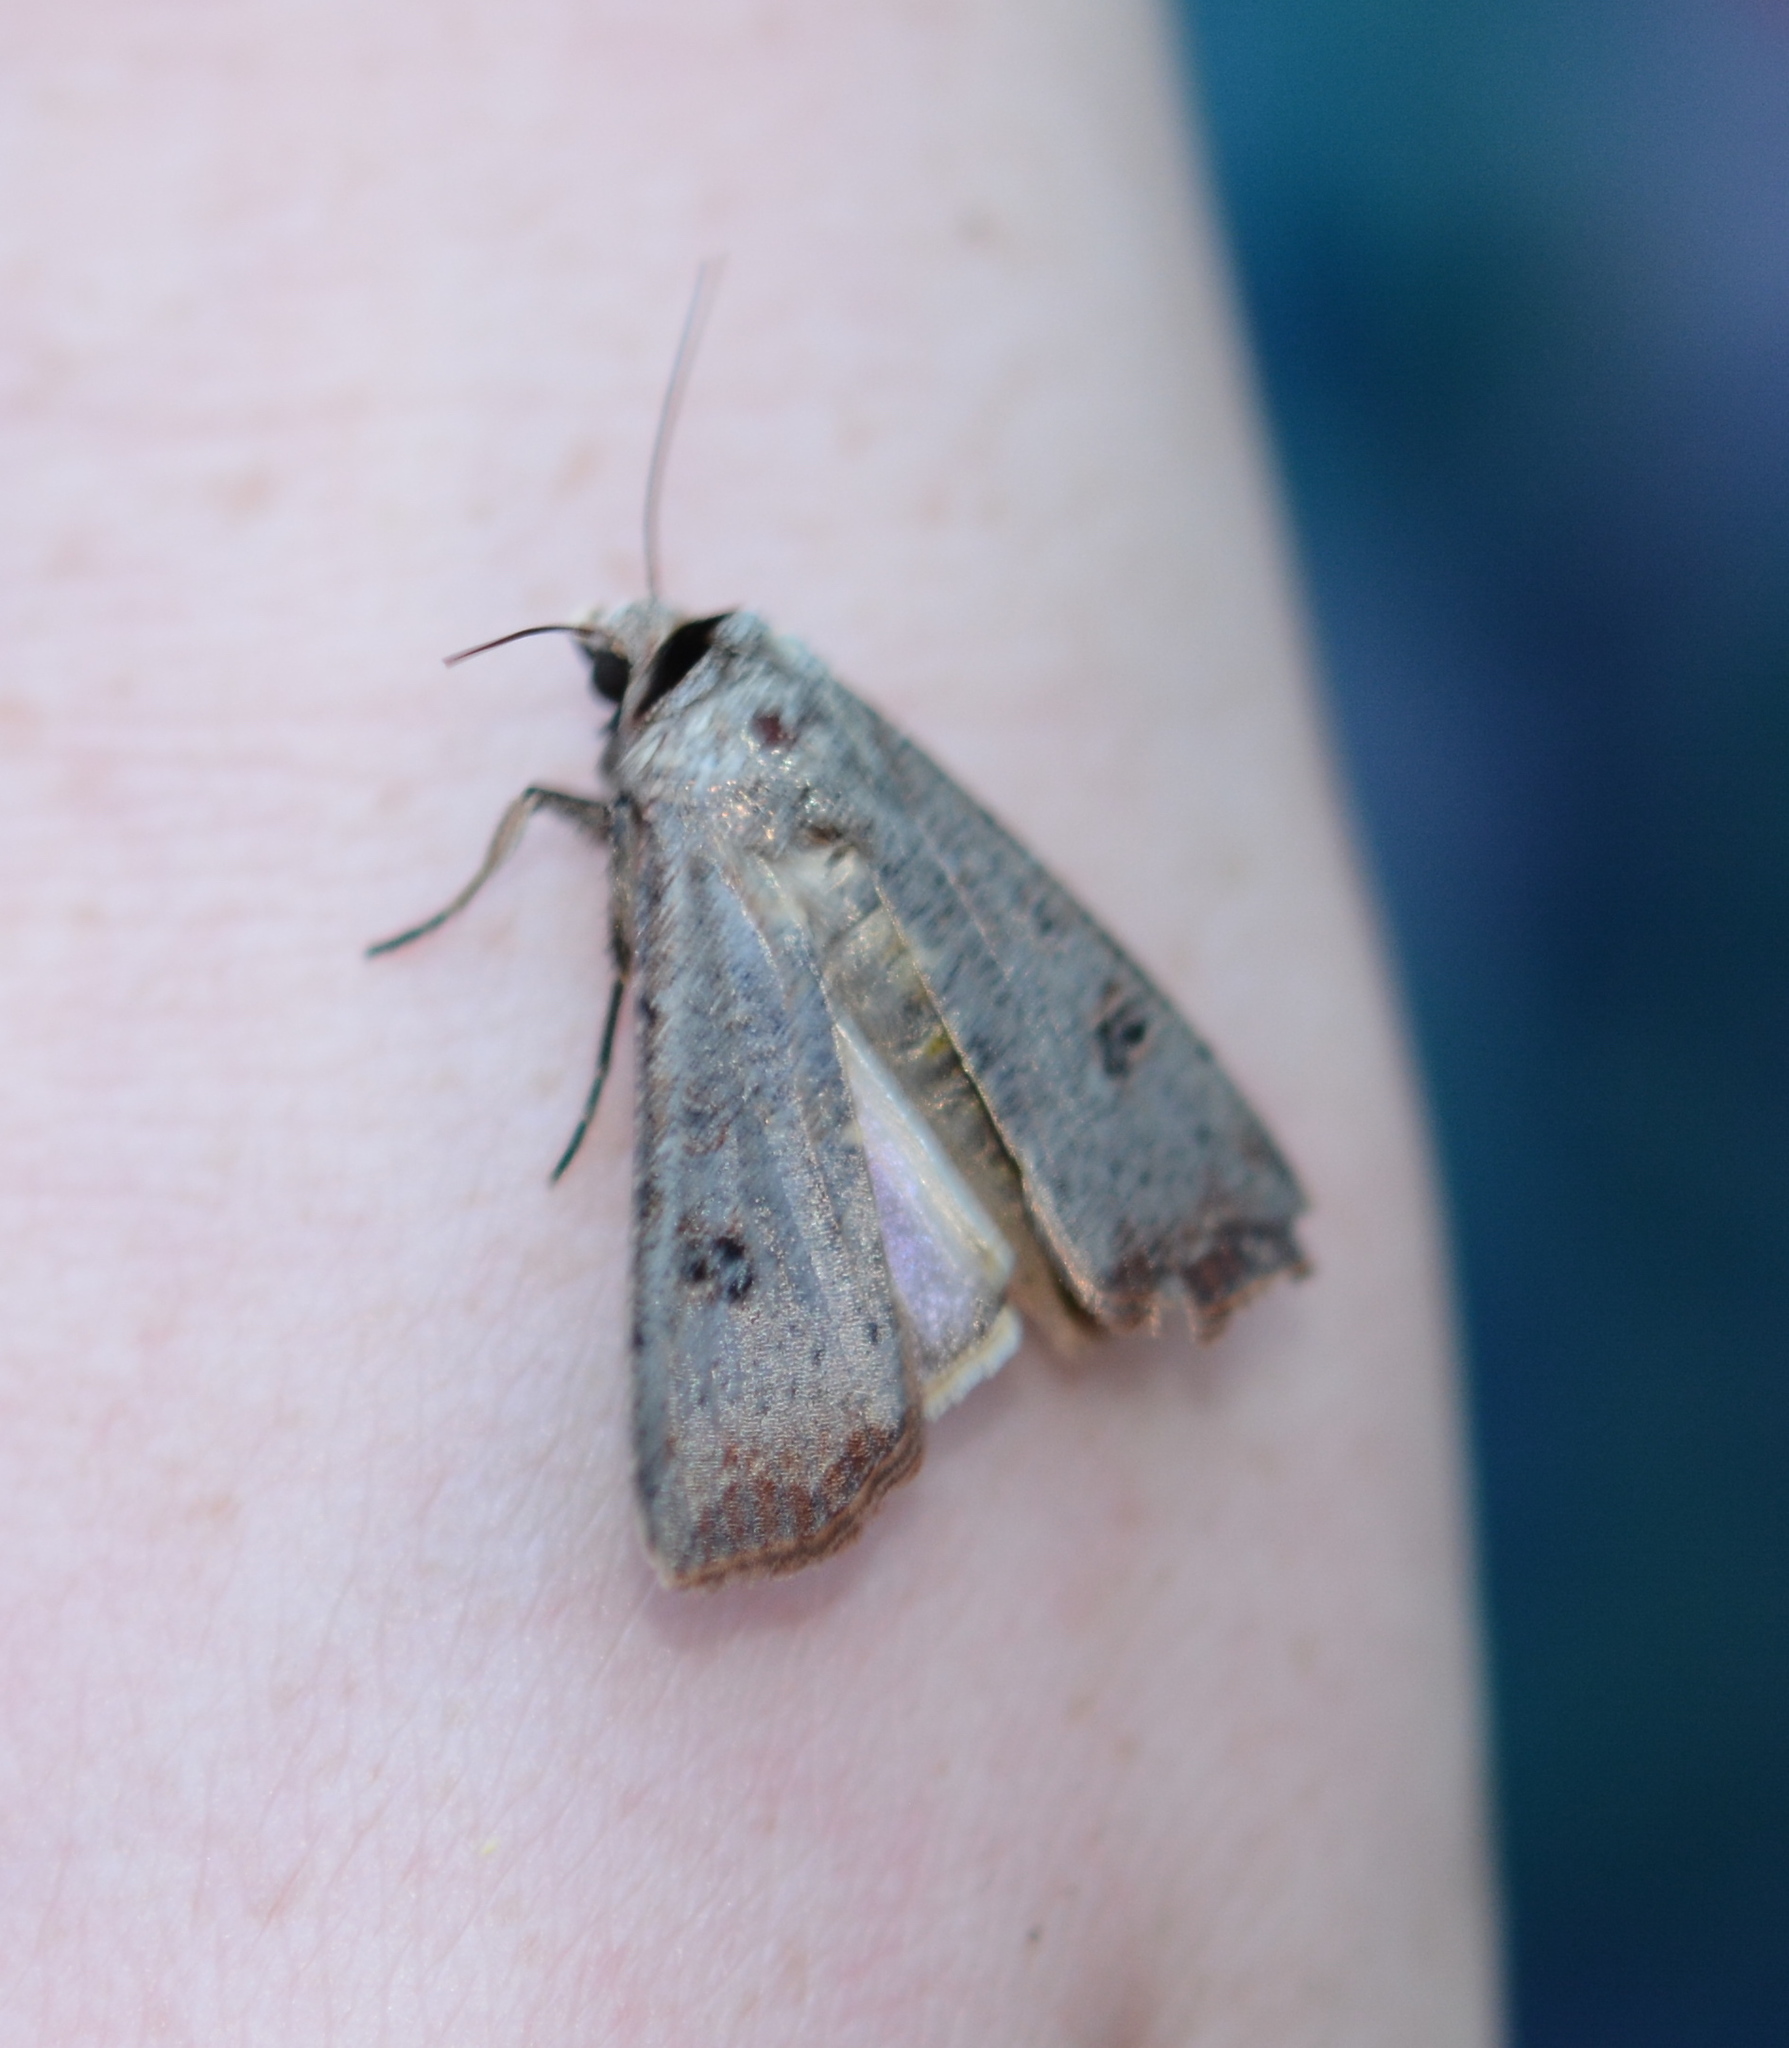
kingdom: Animalia
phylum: Arthropoda
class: Insecta
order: Lepidoptera
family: Noctuidae
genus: Anicla
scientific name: Anicla infecta
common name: Green cutworm
